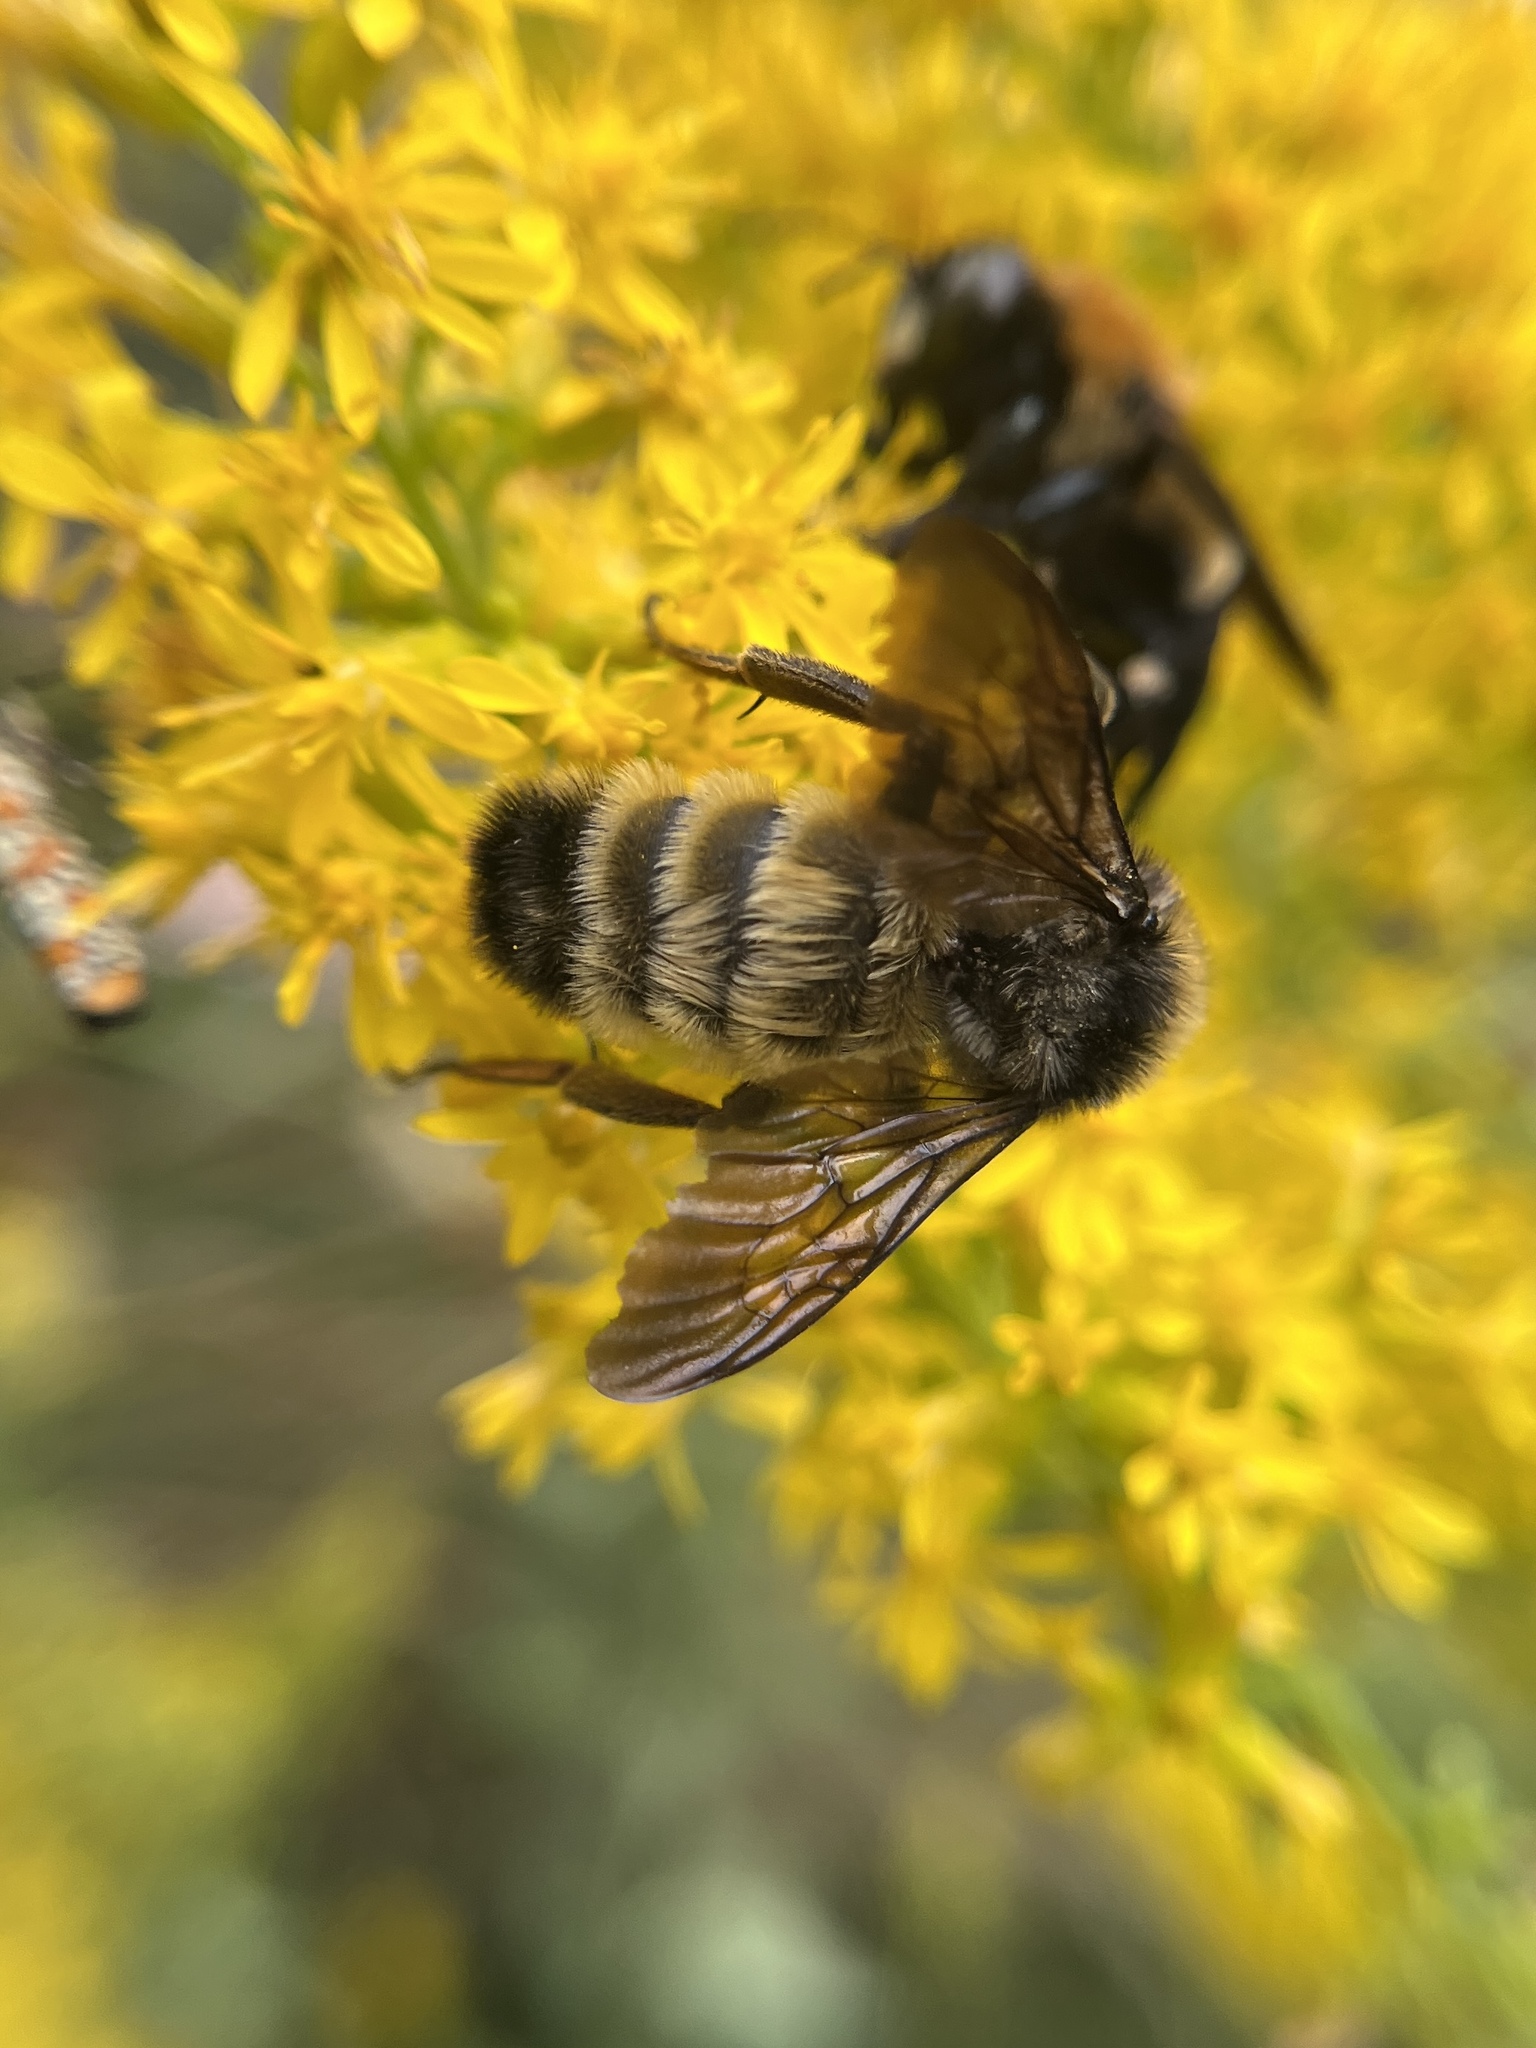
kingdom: Animalia
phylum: Arthropoda
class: Insecta
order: Hymenoptera
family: Apidae
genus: Bombus
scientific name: Bombus pensylvanicus
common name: Bumble bee
